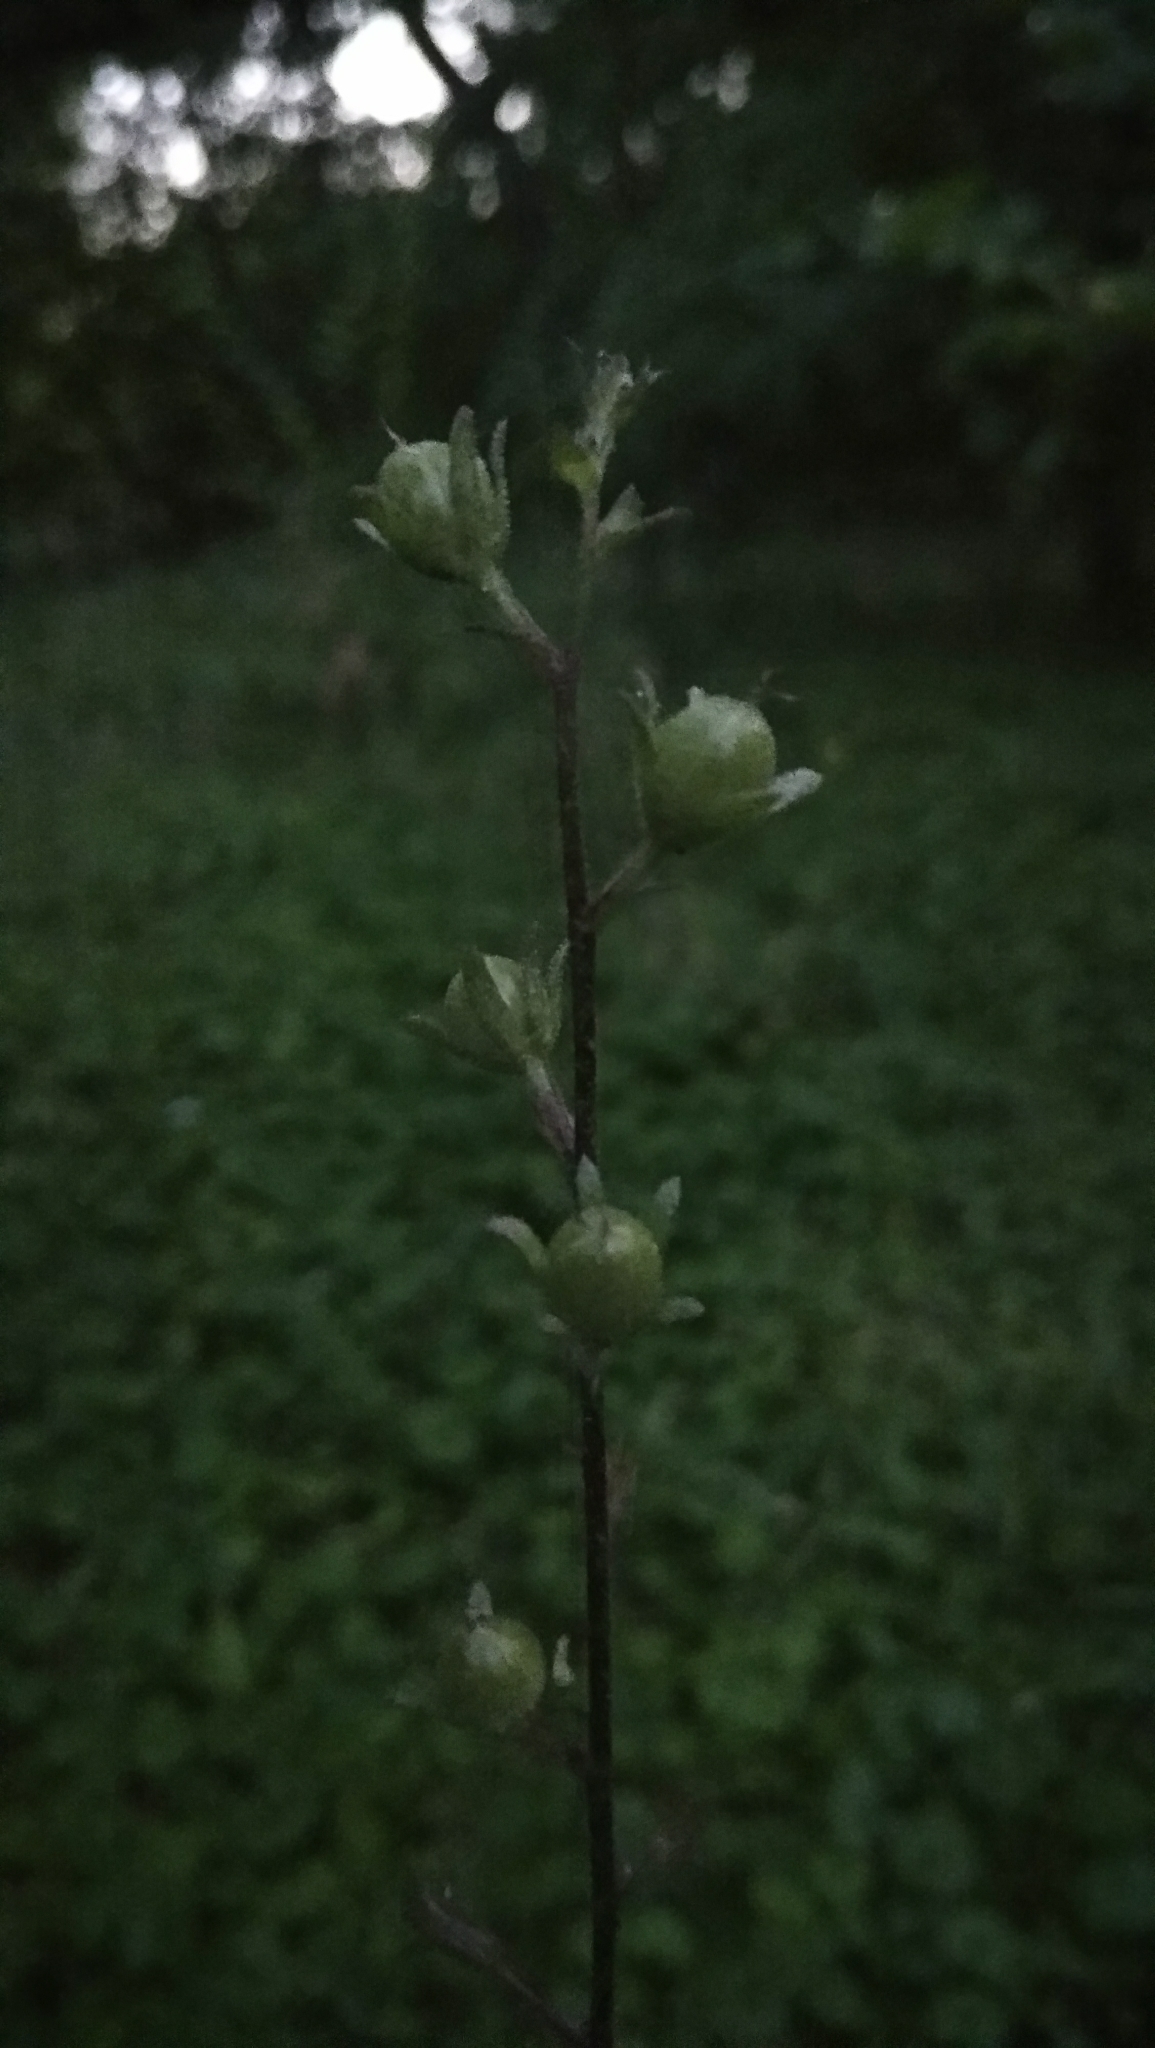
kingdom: Plantae
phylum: Tracheophyta
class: Magnoliopsida
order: Lamiales
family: Scrophulariaceae
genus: Verbascum
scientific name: Verbascum blattaria
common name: Moth mullein
